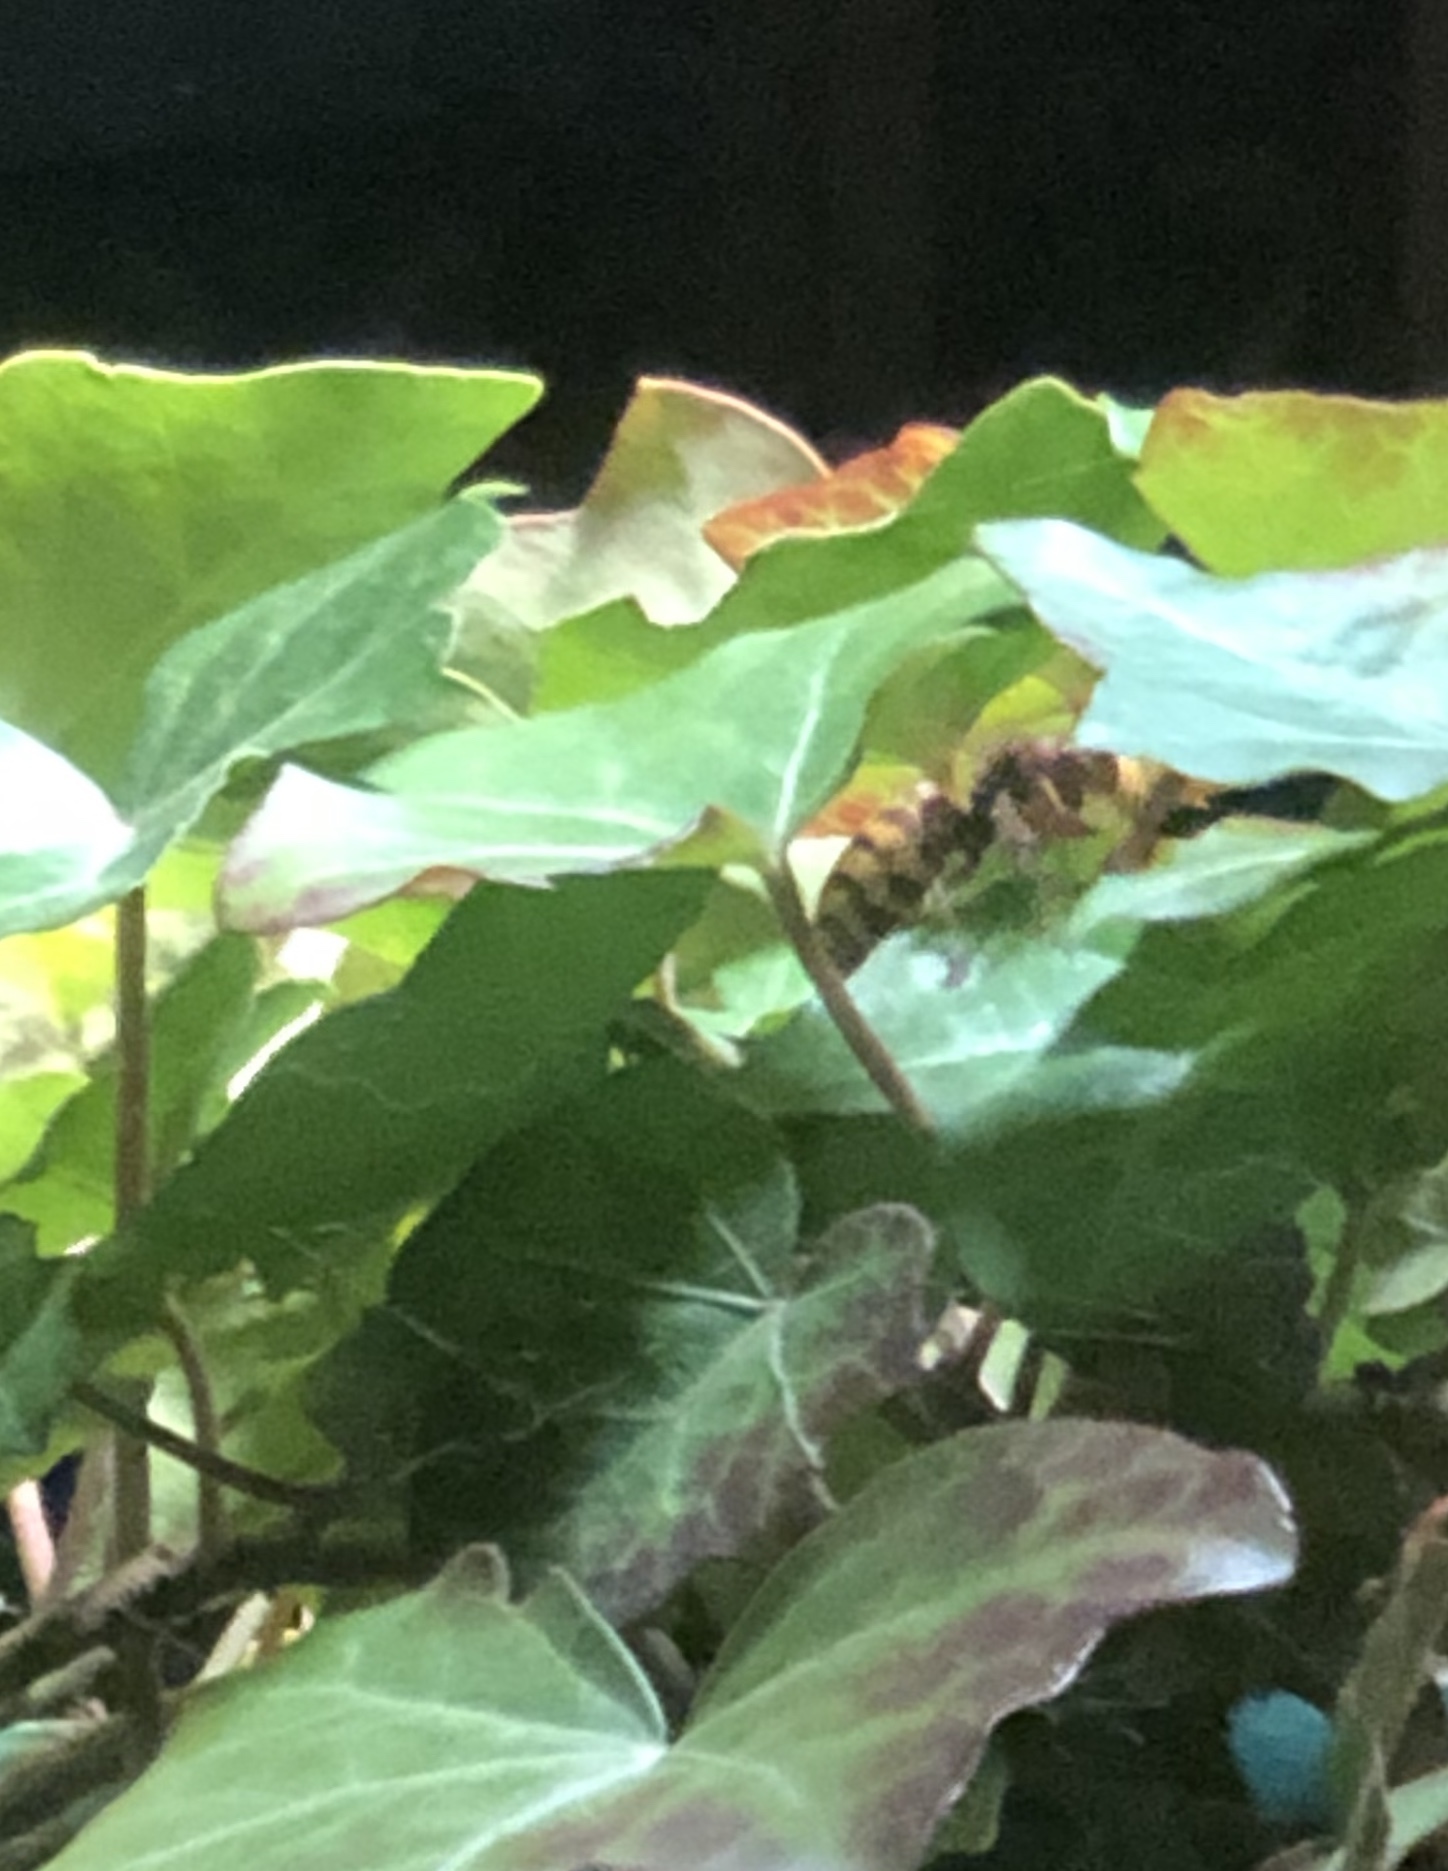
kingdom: Animalia
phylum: Arthropoda
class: Insecta
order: Hymenoptera
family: Vespidae
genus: Vespa
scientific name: Vespa crabro
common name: Hornet
